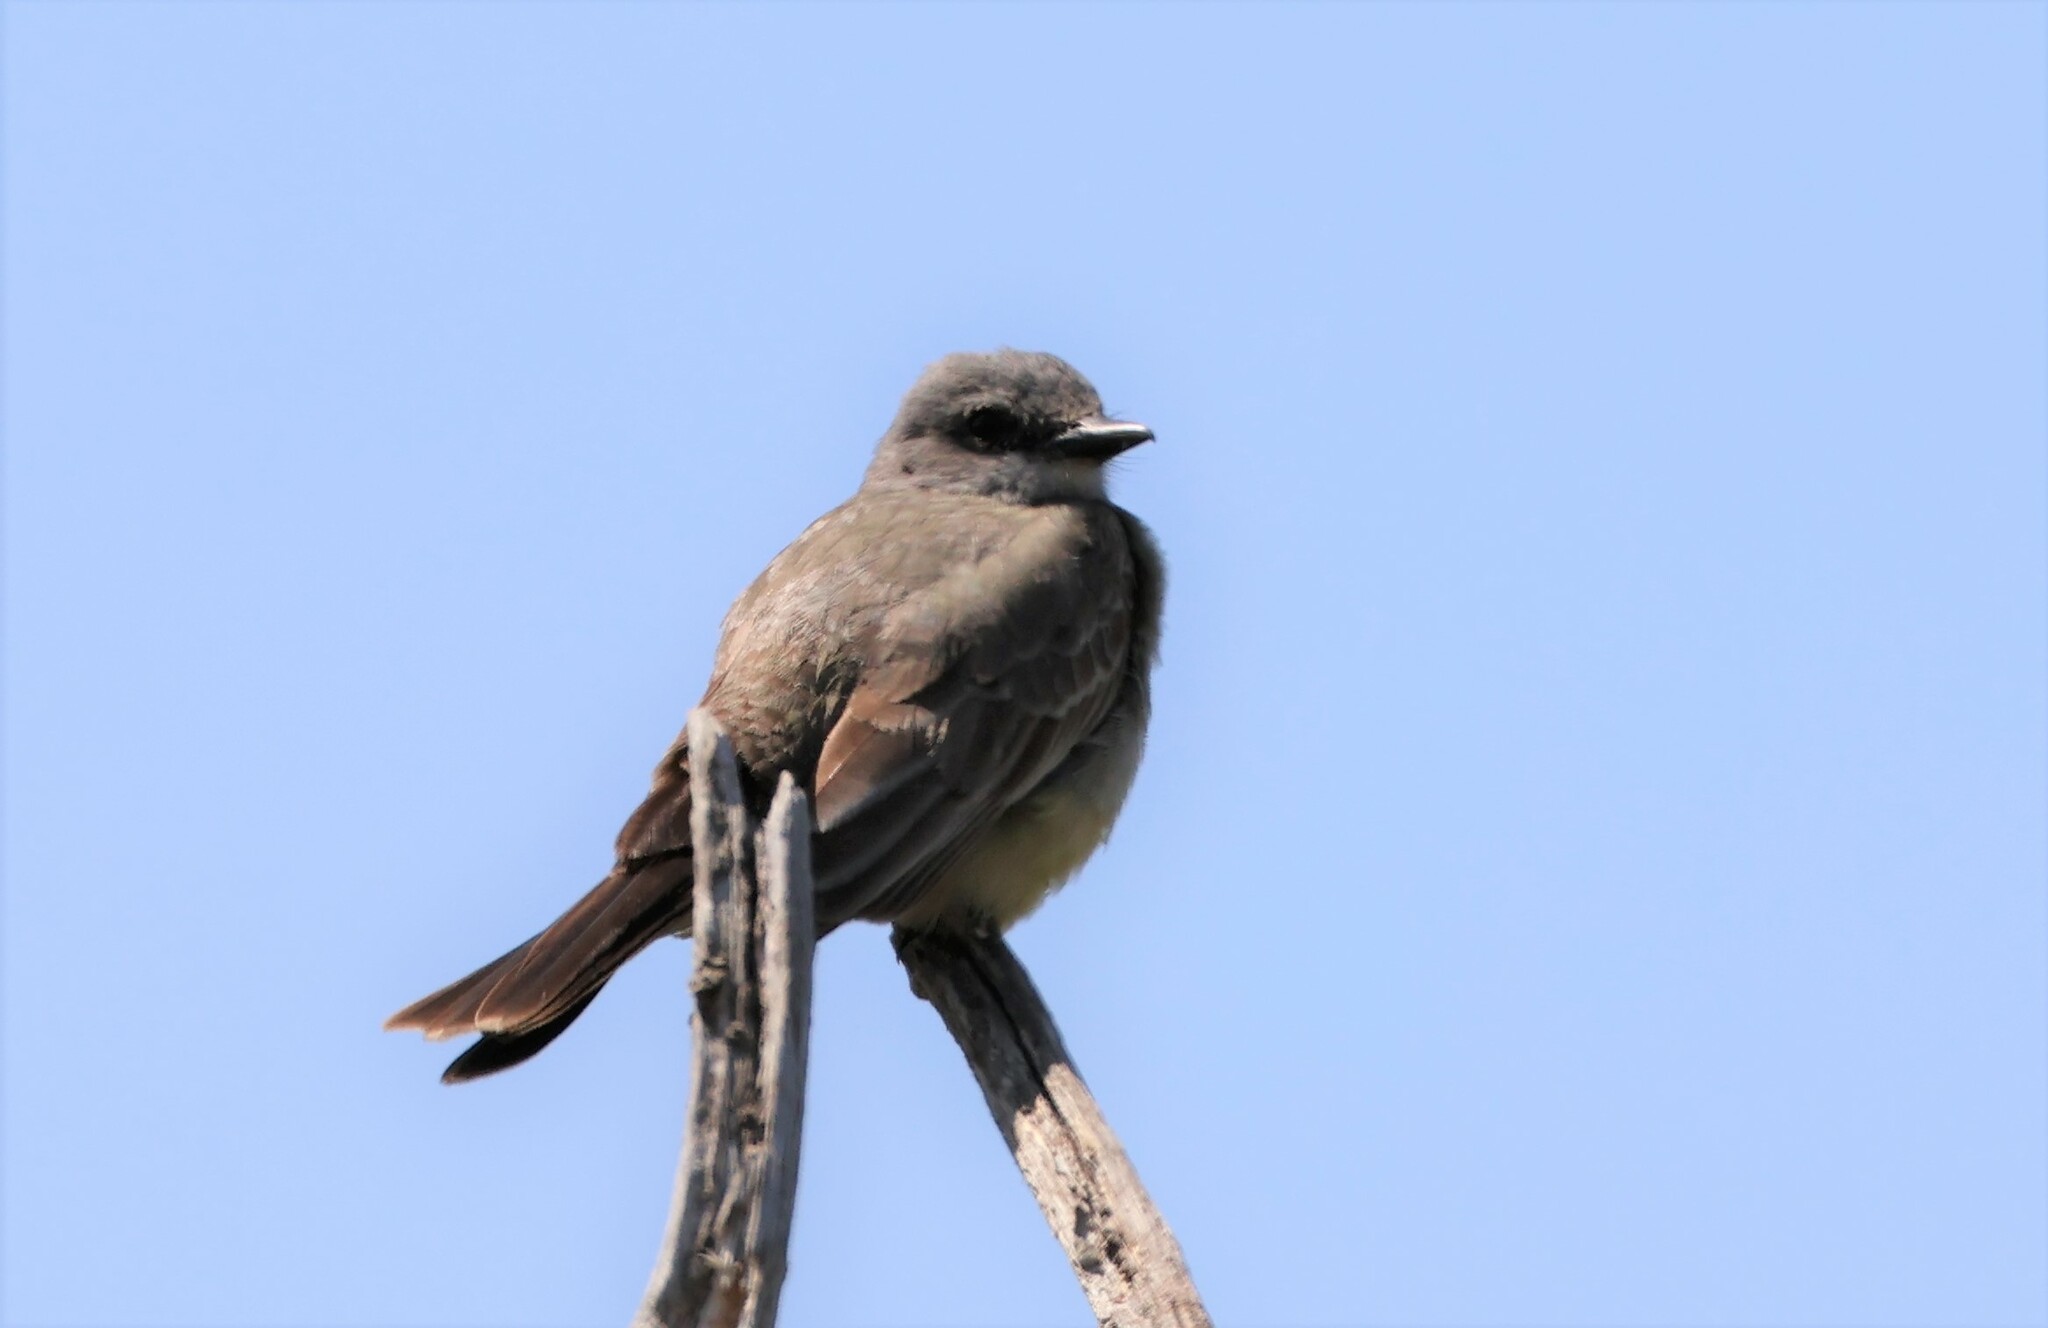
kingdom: Animalia
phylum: Chordata
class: Aves
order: Passeriformes
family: Tyrannidae
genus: Tyrannus
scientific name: Tyrannus vociferans
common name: Cassin's kingbird
